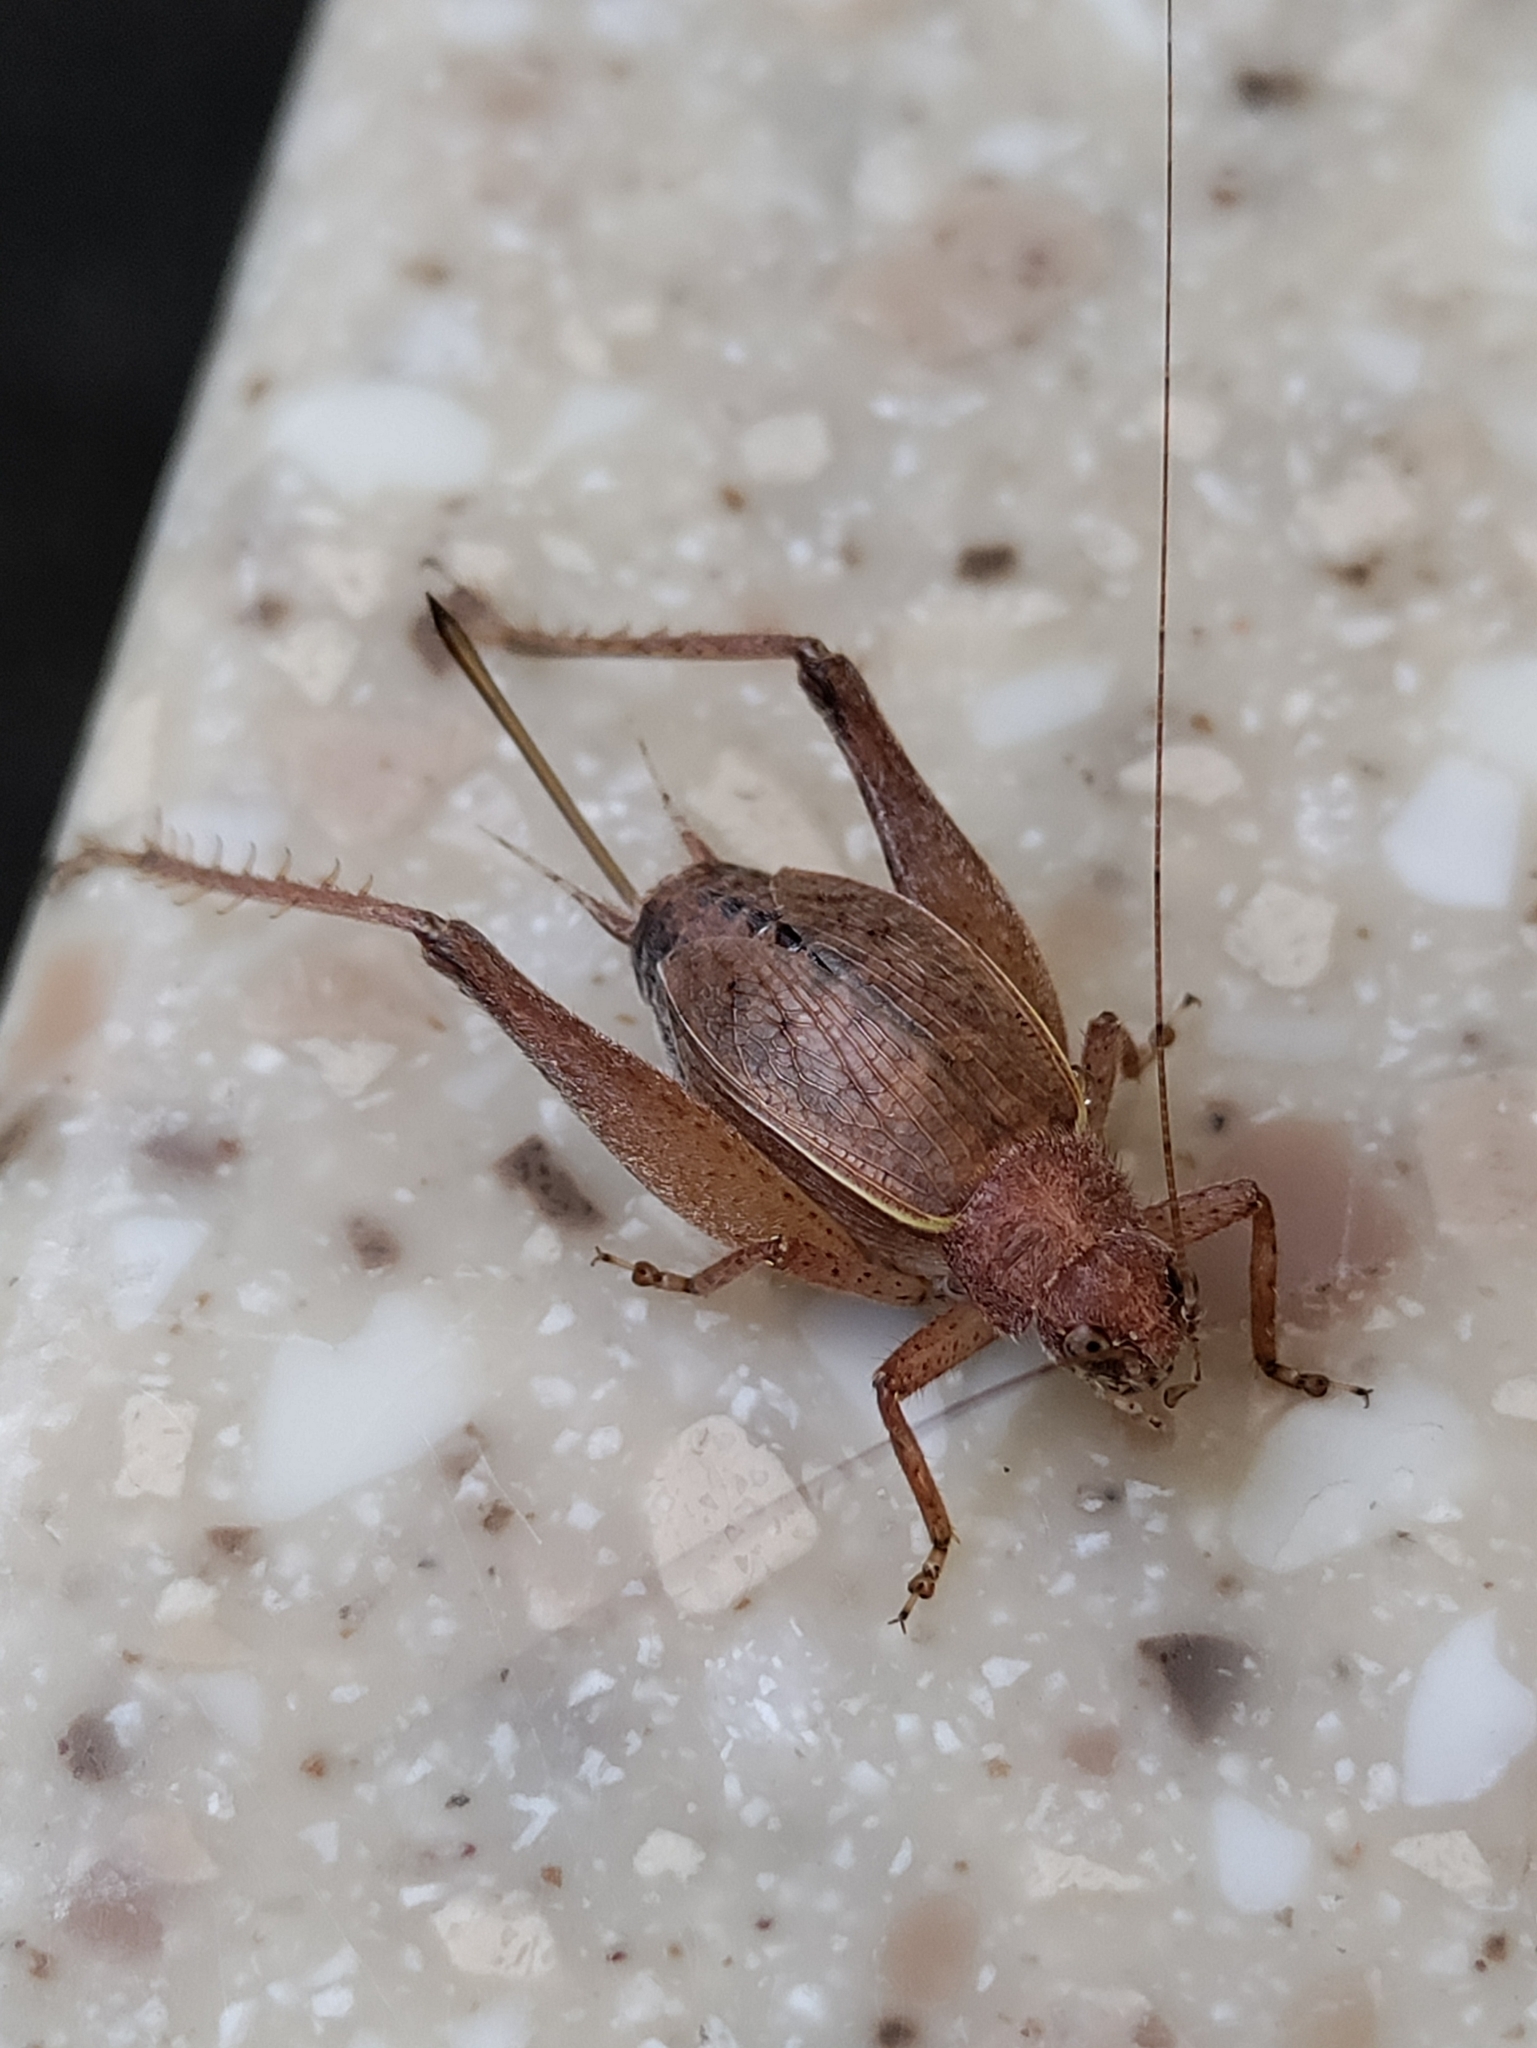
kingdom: Animalia
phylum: Arthropoda
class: Insecta
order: Orthoptera
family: Gryllidae
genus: Hapithus
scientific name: Hapithus agitator
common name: Restless bush cricket
